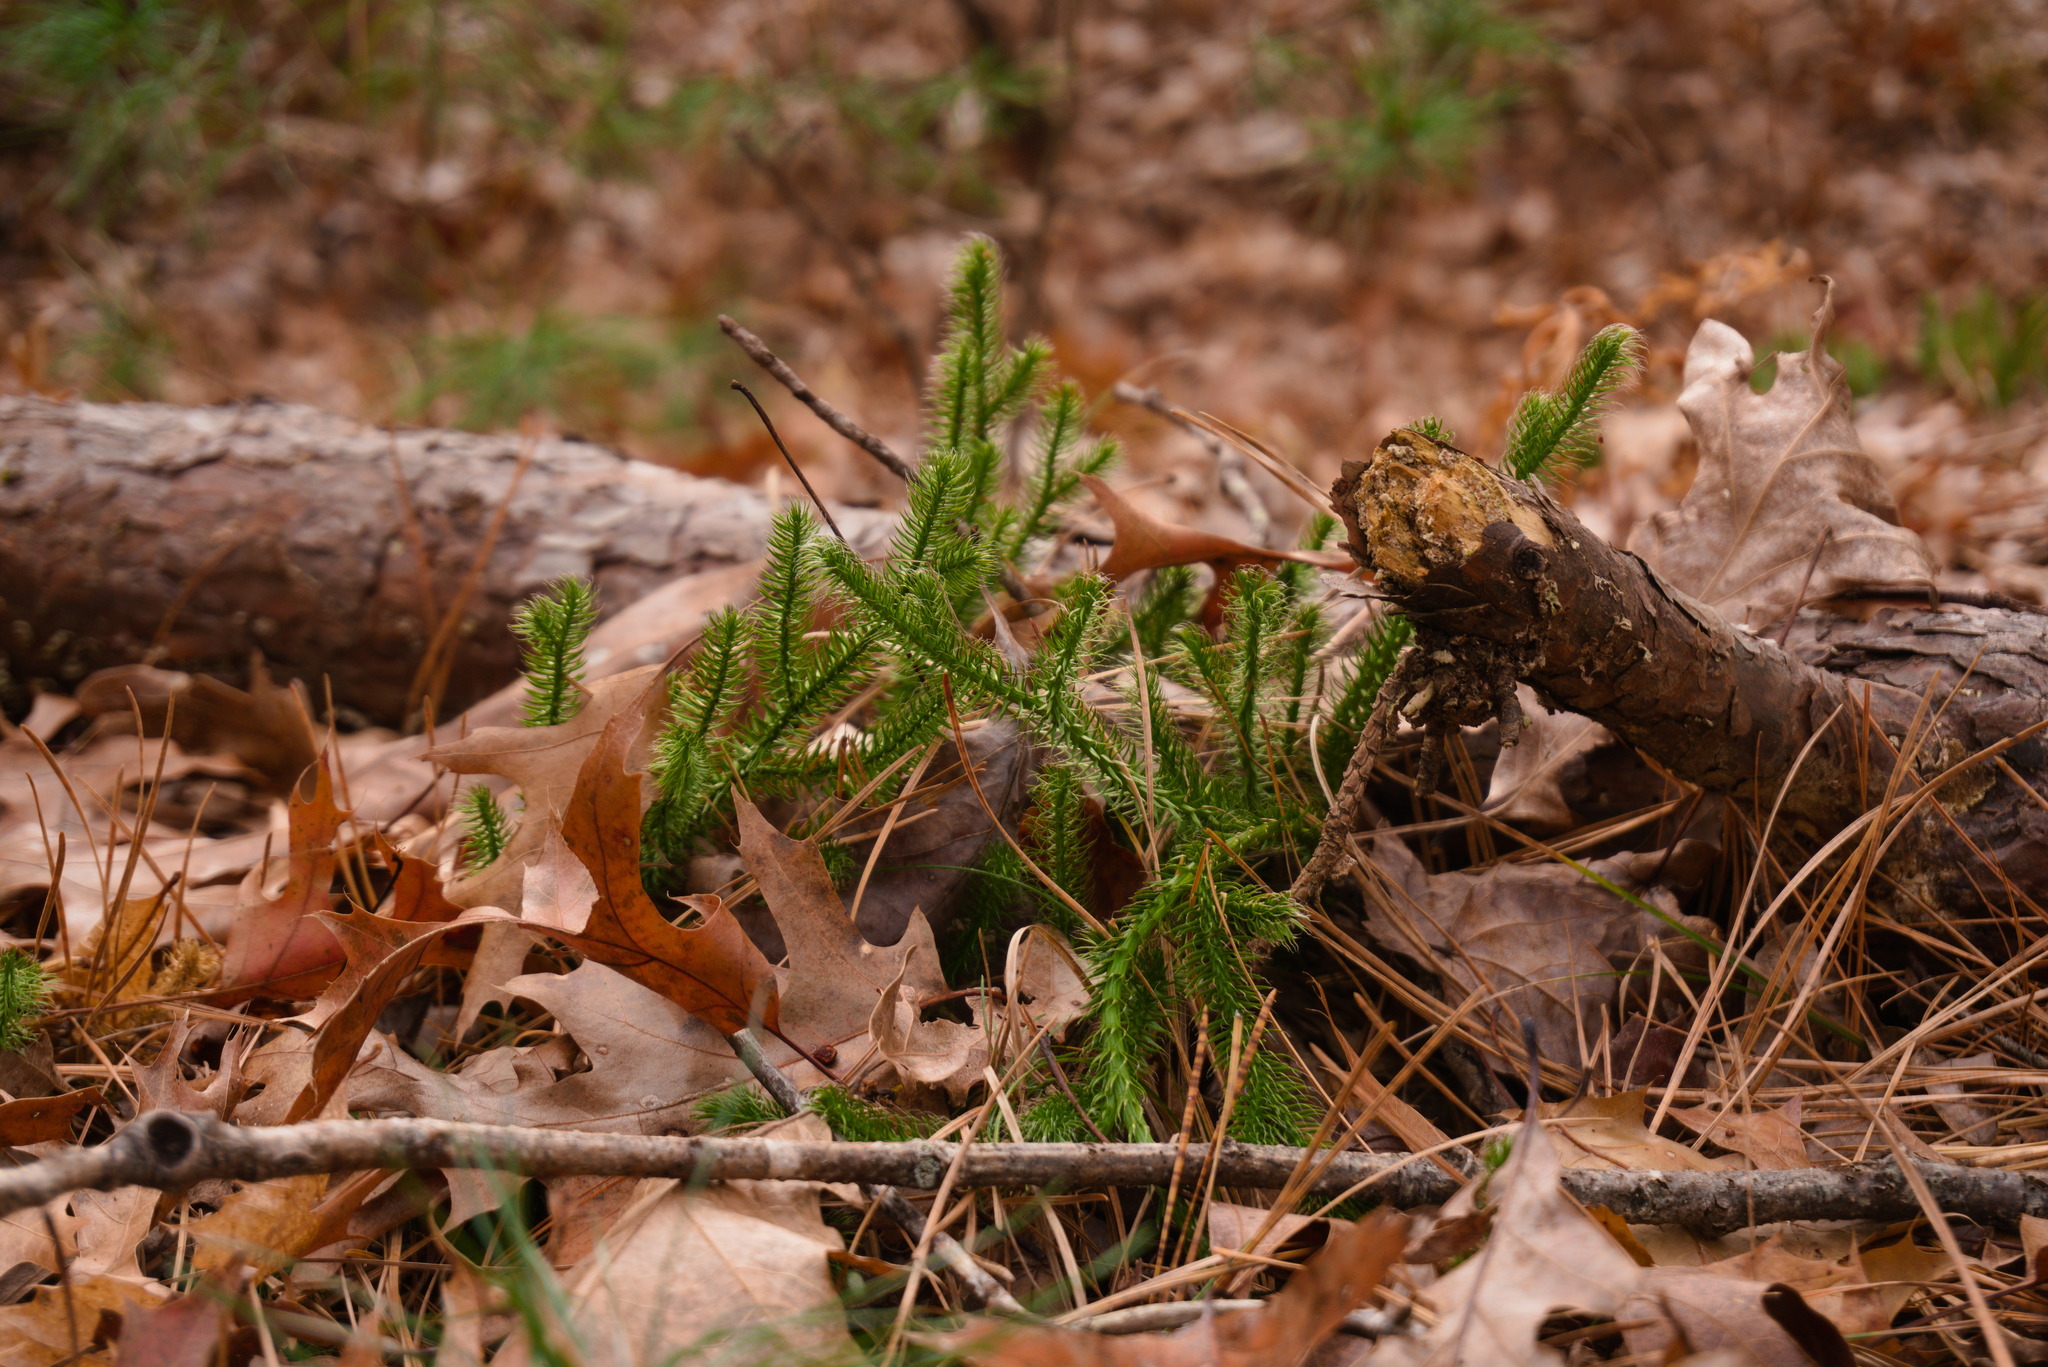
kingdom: Plantae
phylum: Tracheophyta
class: Lycopodiopsida
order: Lycopodiales
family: Lycopodiaceae
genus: Lycopodium
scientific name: Lycopodium clavatum
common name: Stag's-horn clubmoss
